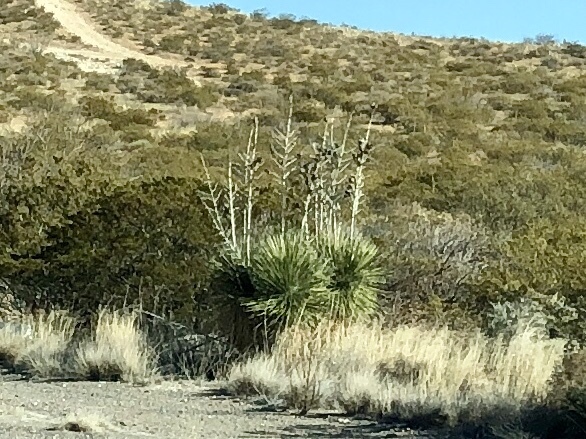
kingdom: Plantae
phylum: Tracheophyta
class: Liliopsida
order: Asparagales
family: Asparagaceae
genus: Yucca
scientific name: Yucca elata
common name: Palmella
